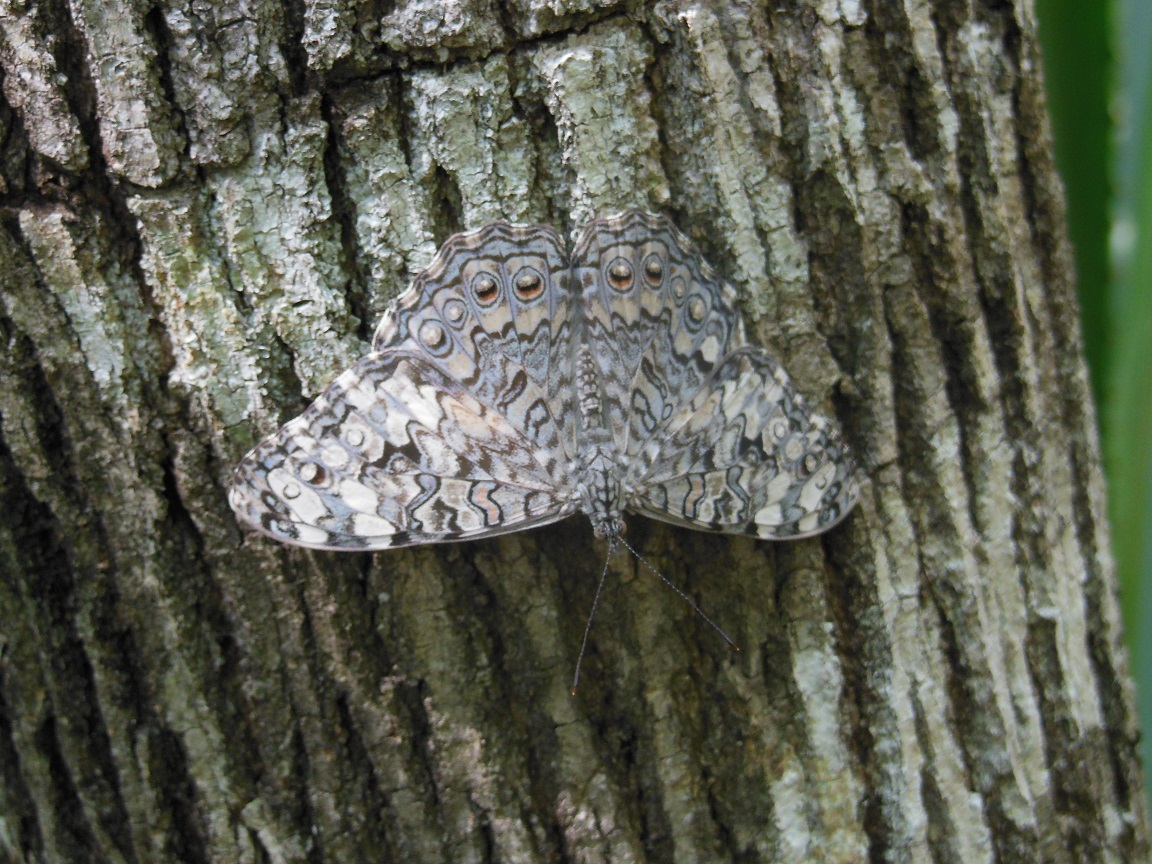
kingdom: Animalia
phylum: Arthropoda
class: Insecta
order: Lepidoptera
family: Nymphalidae
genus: Hamadryas
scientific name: Hamadryas februa
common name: Gray cracker
